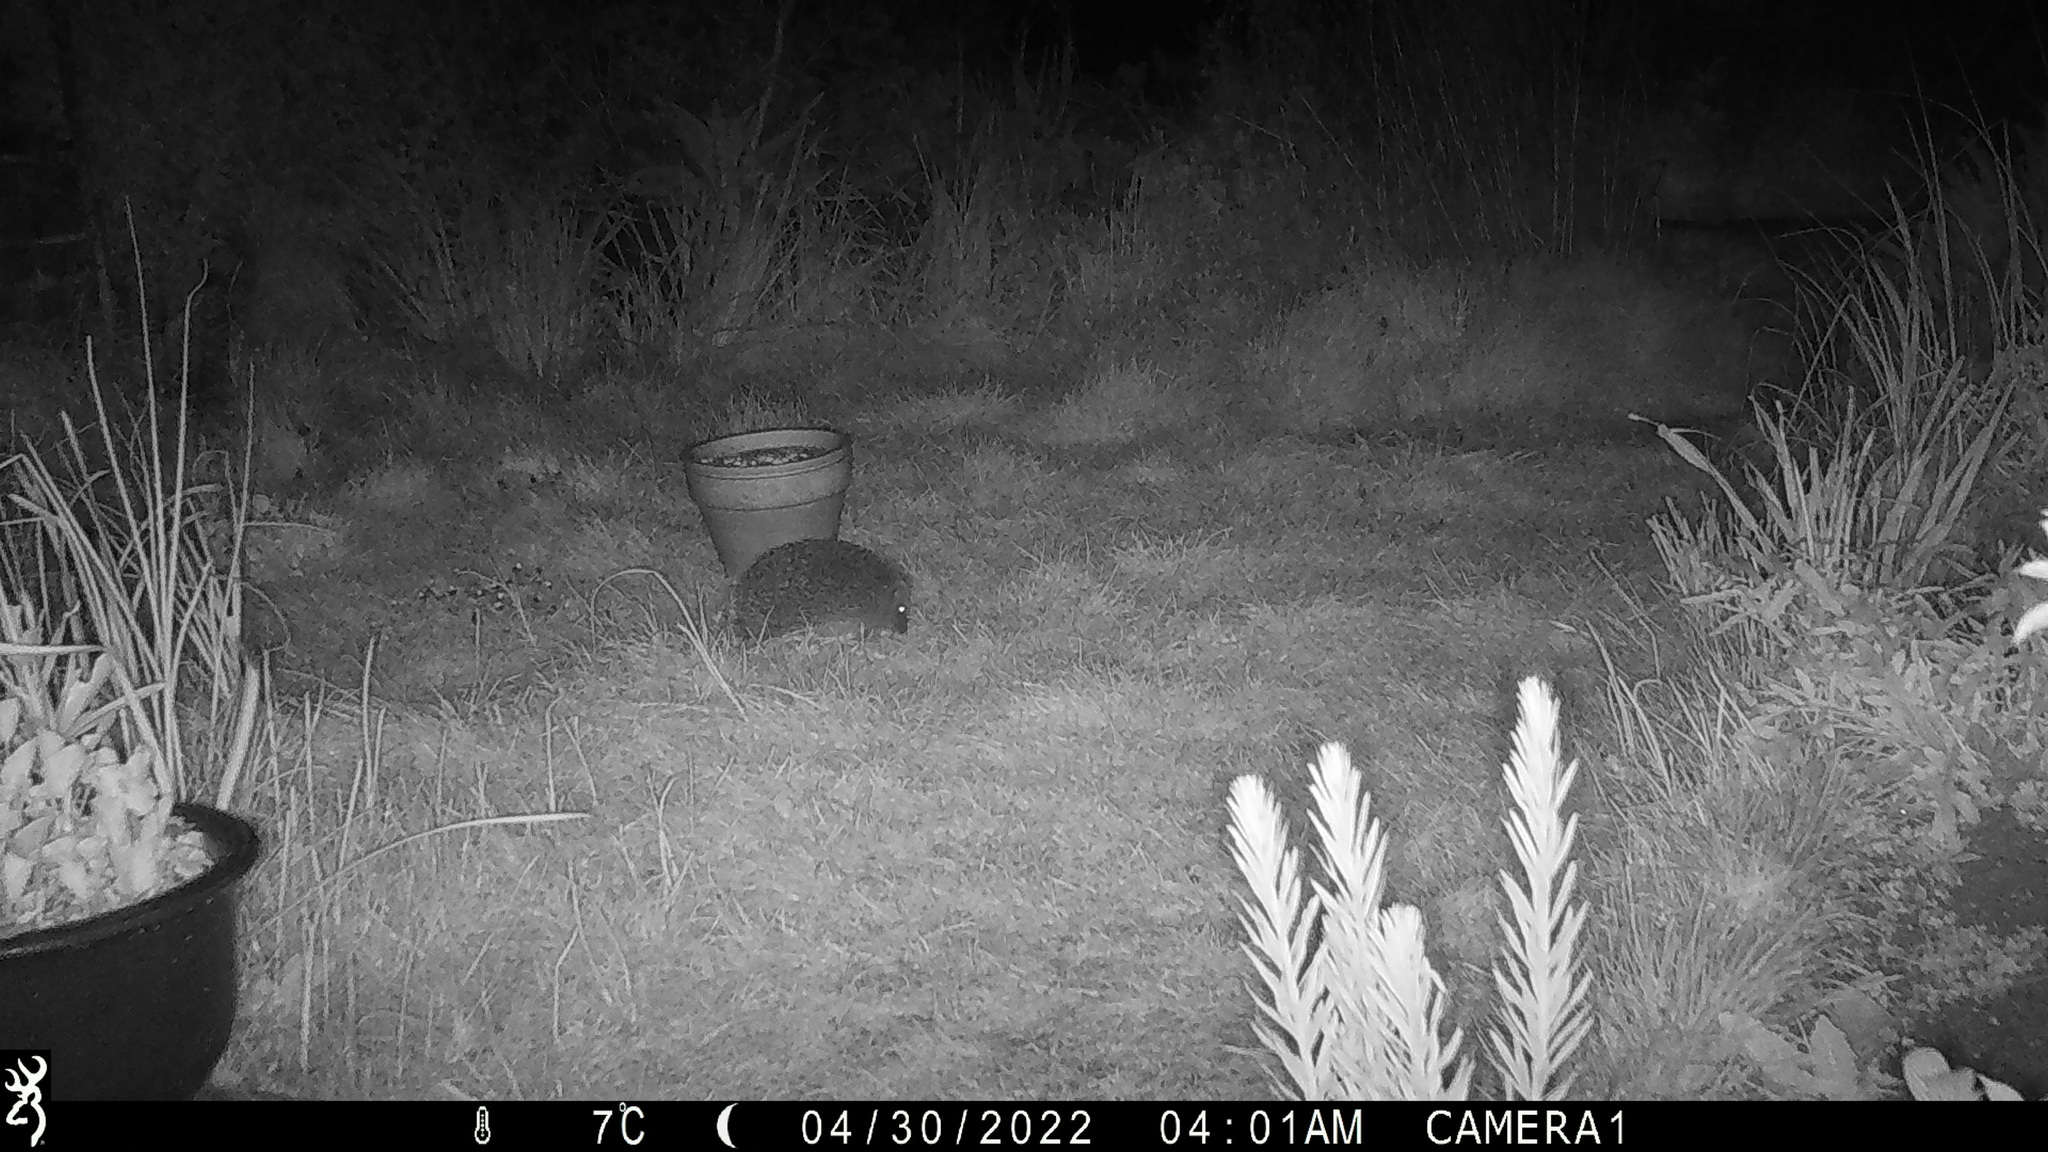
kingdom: Animalia
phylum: Chordata
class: Mammalia
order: Erinaceomorpha
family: Erinaceidae
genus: Erinaceus
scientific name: Erinaceus europaeus
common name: West european hedgehog
